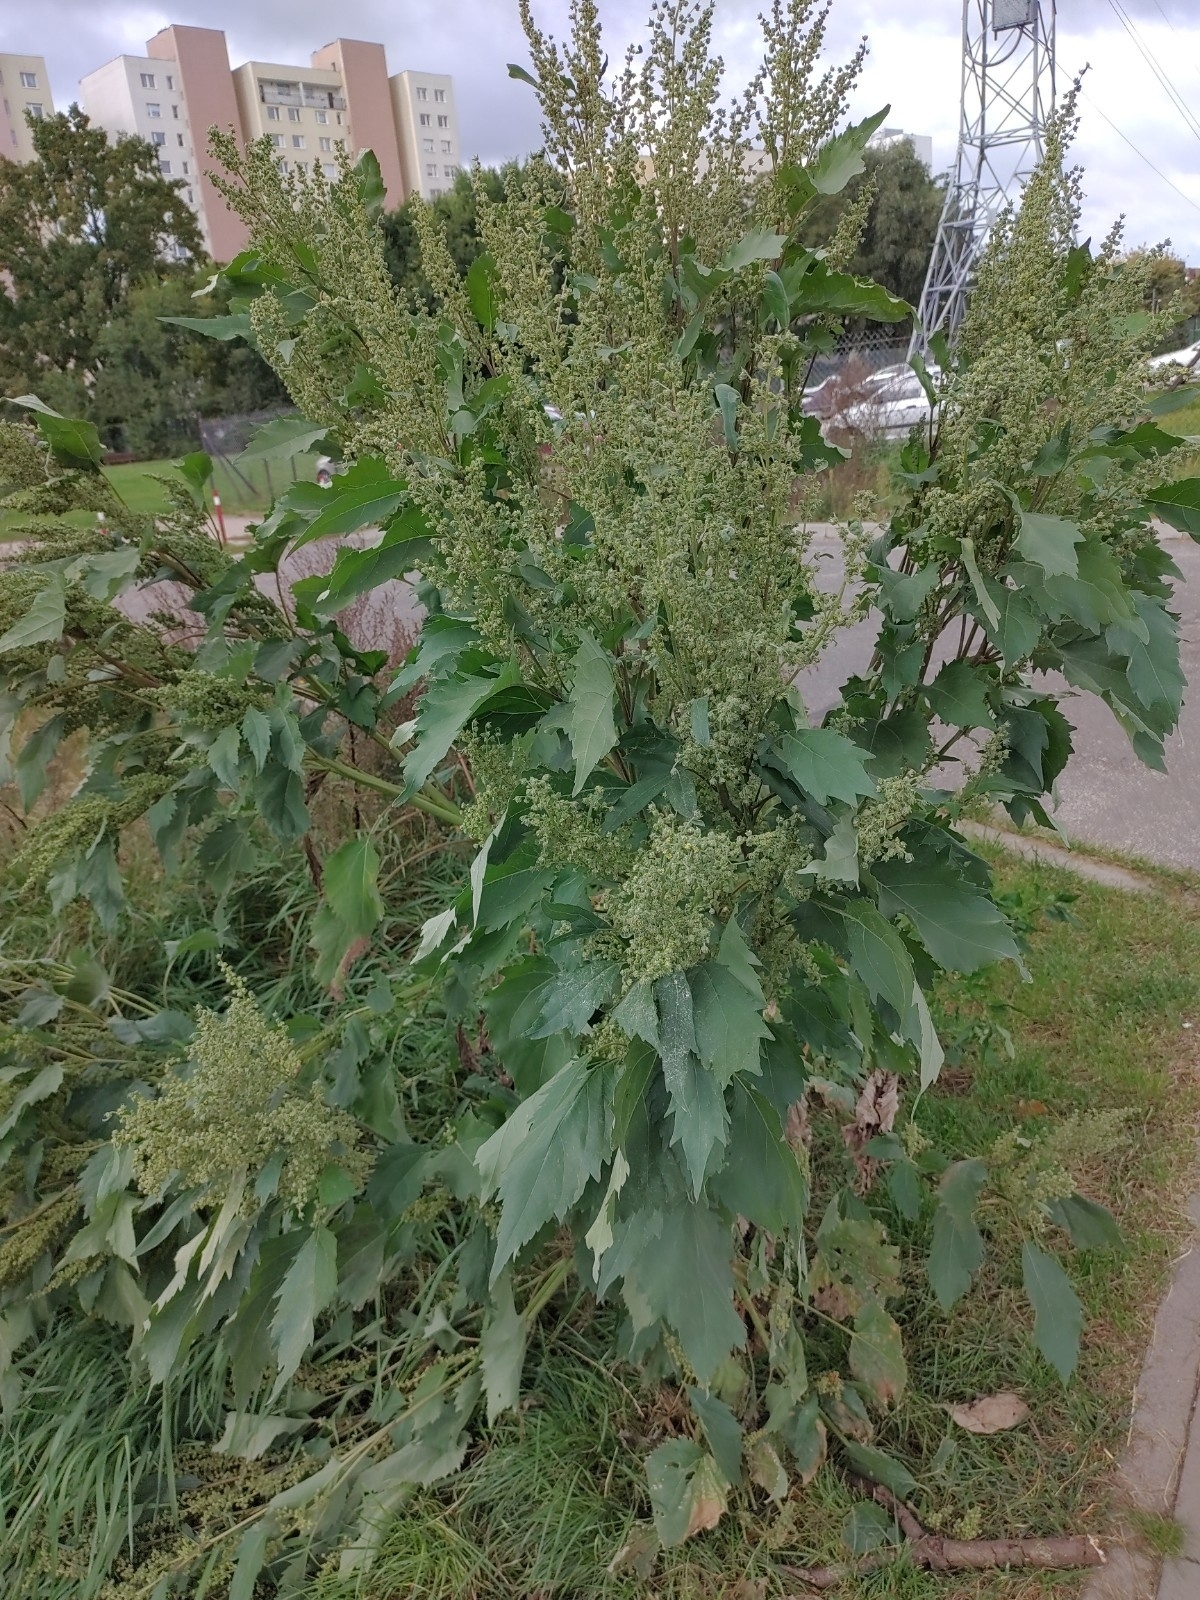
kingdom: Plantae
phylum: Tracheophyta
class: Magnoliopsida
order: Asterales
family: Asteraceae
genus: Cyclachaena
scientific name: Cyclachaena xanthiifolia
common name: Giant sumpweed
